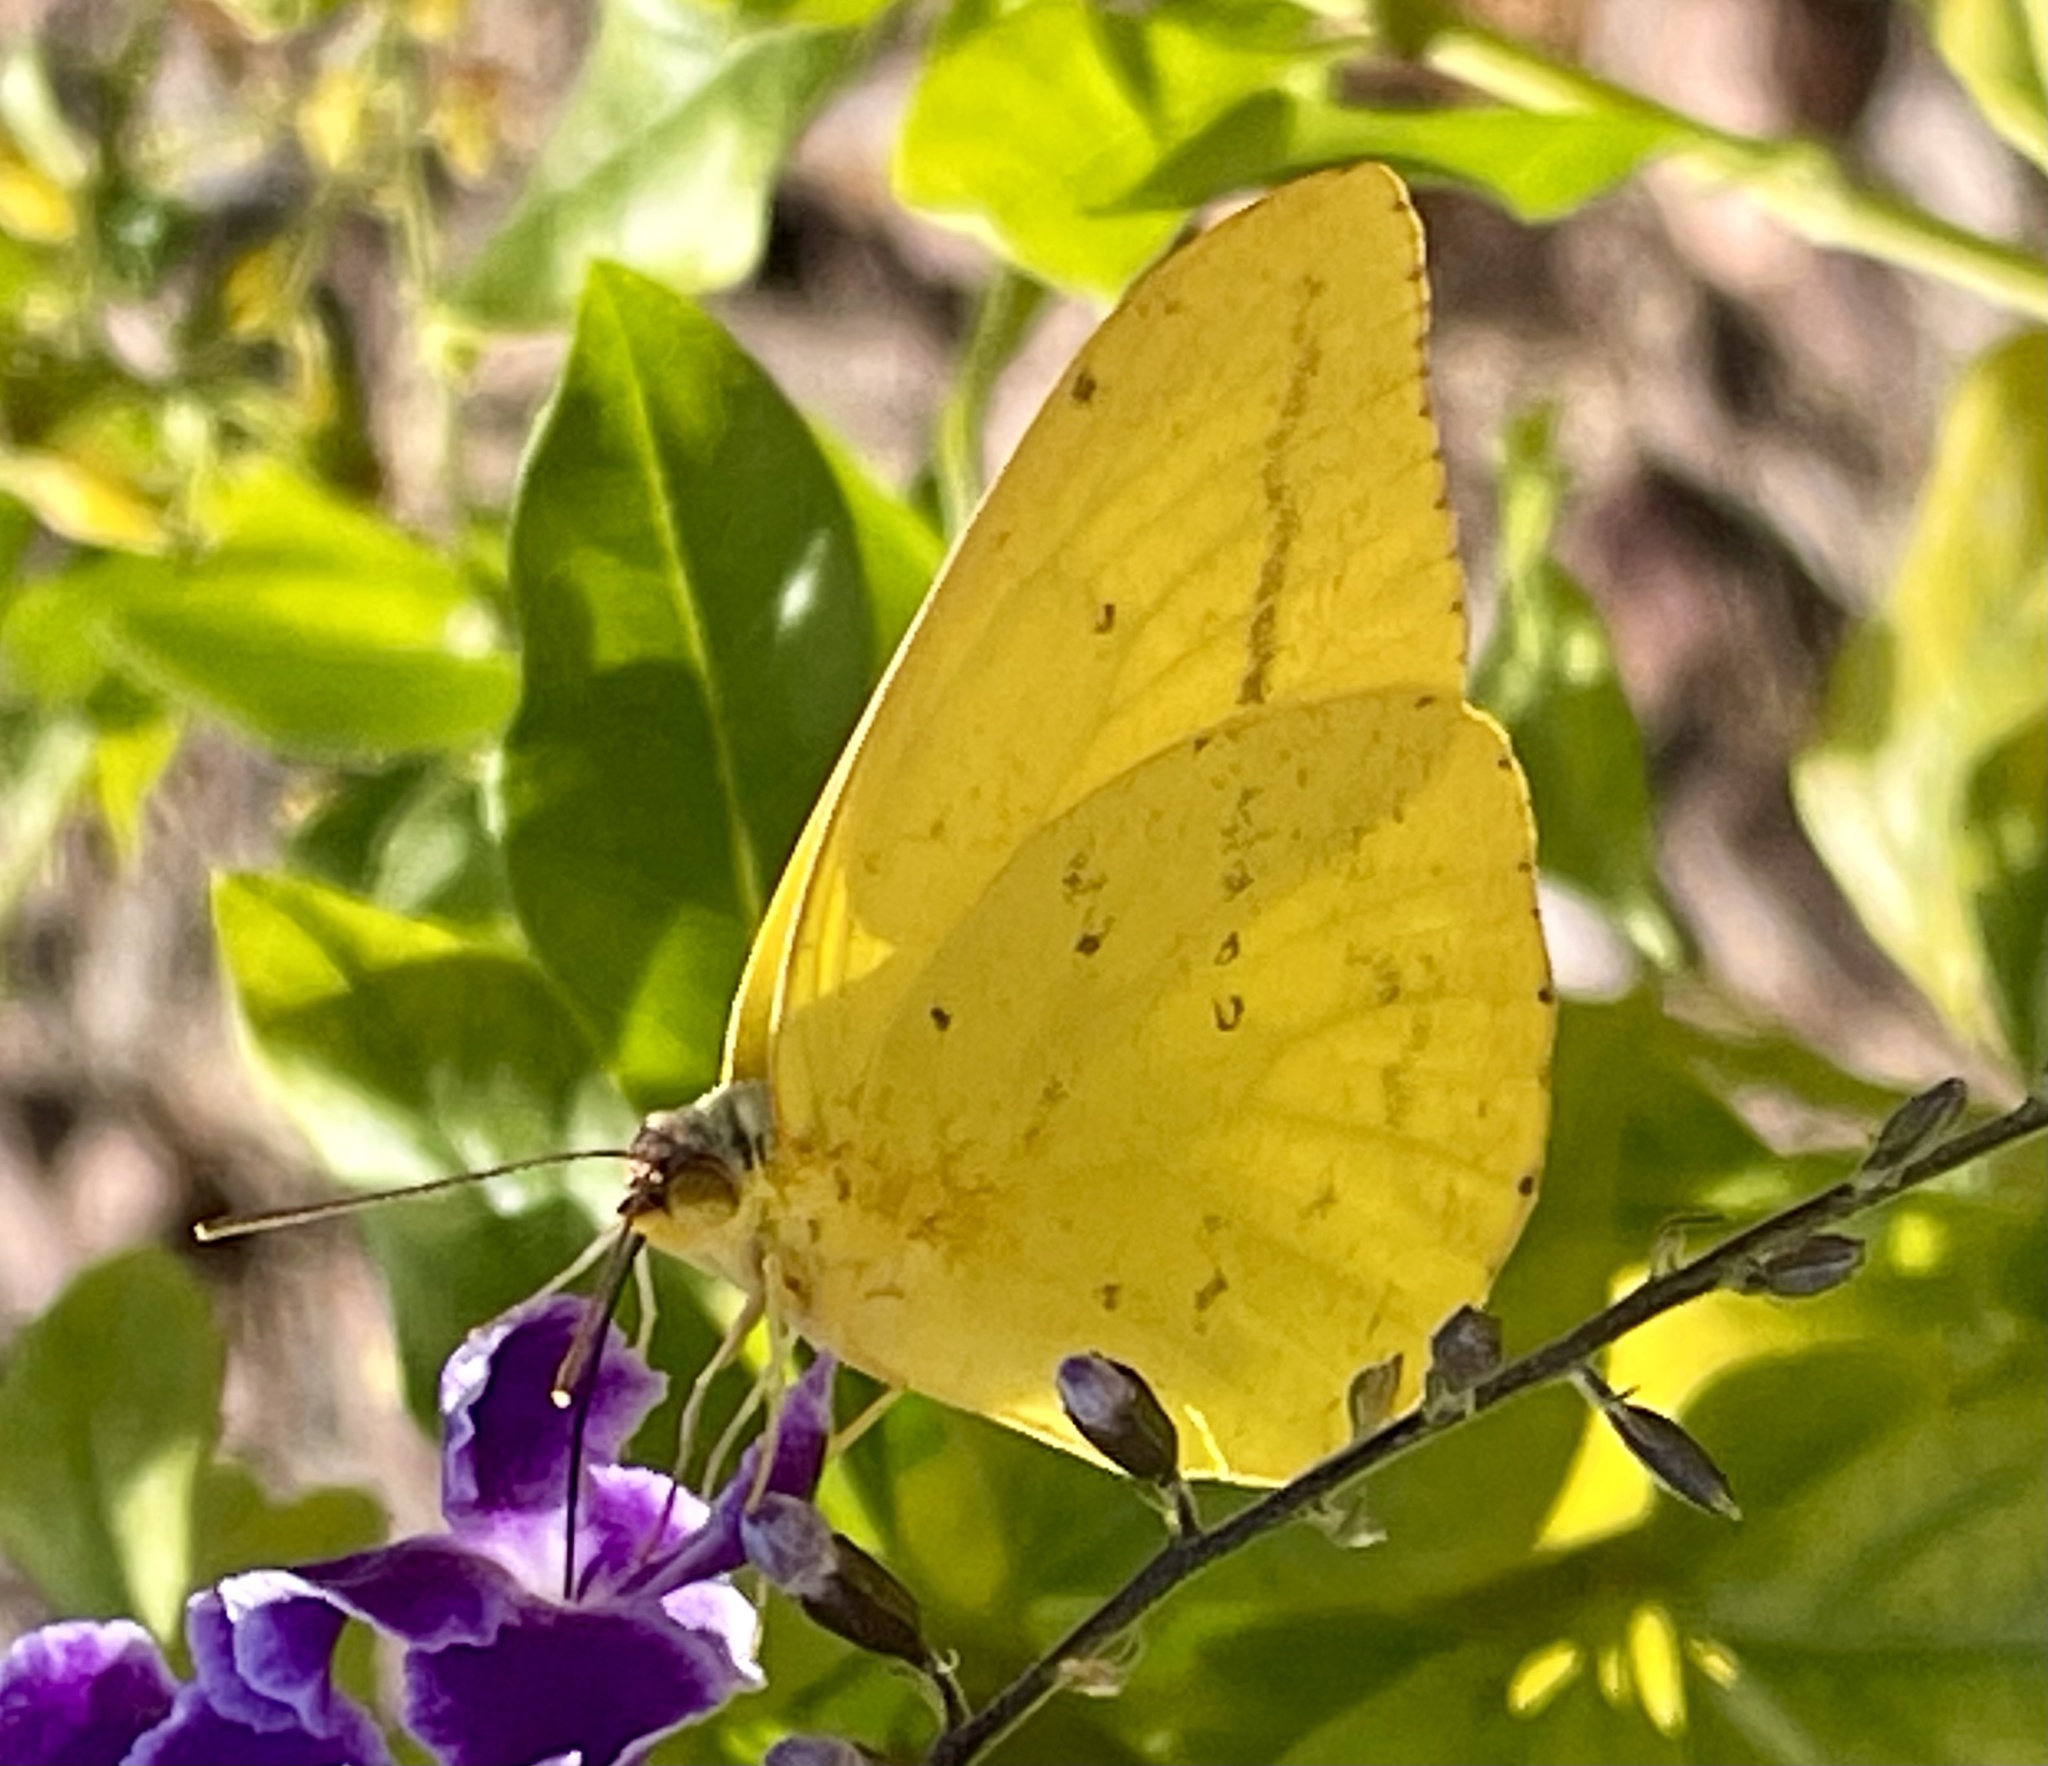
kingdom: Animalia
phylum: Arthropoda
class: Insecta
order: Lepidoptera
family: Pieridae
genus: Phoebis
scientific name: Phoebis agarithe
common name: Large orange sulphur
